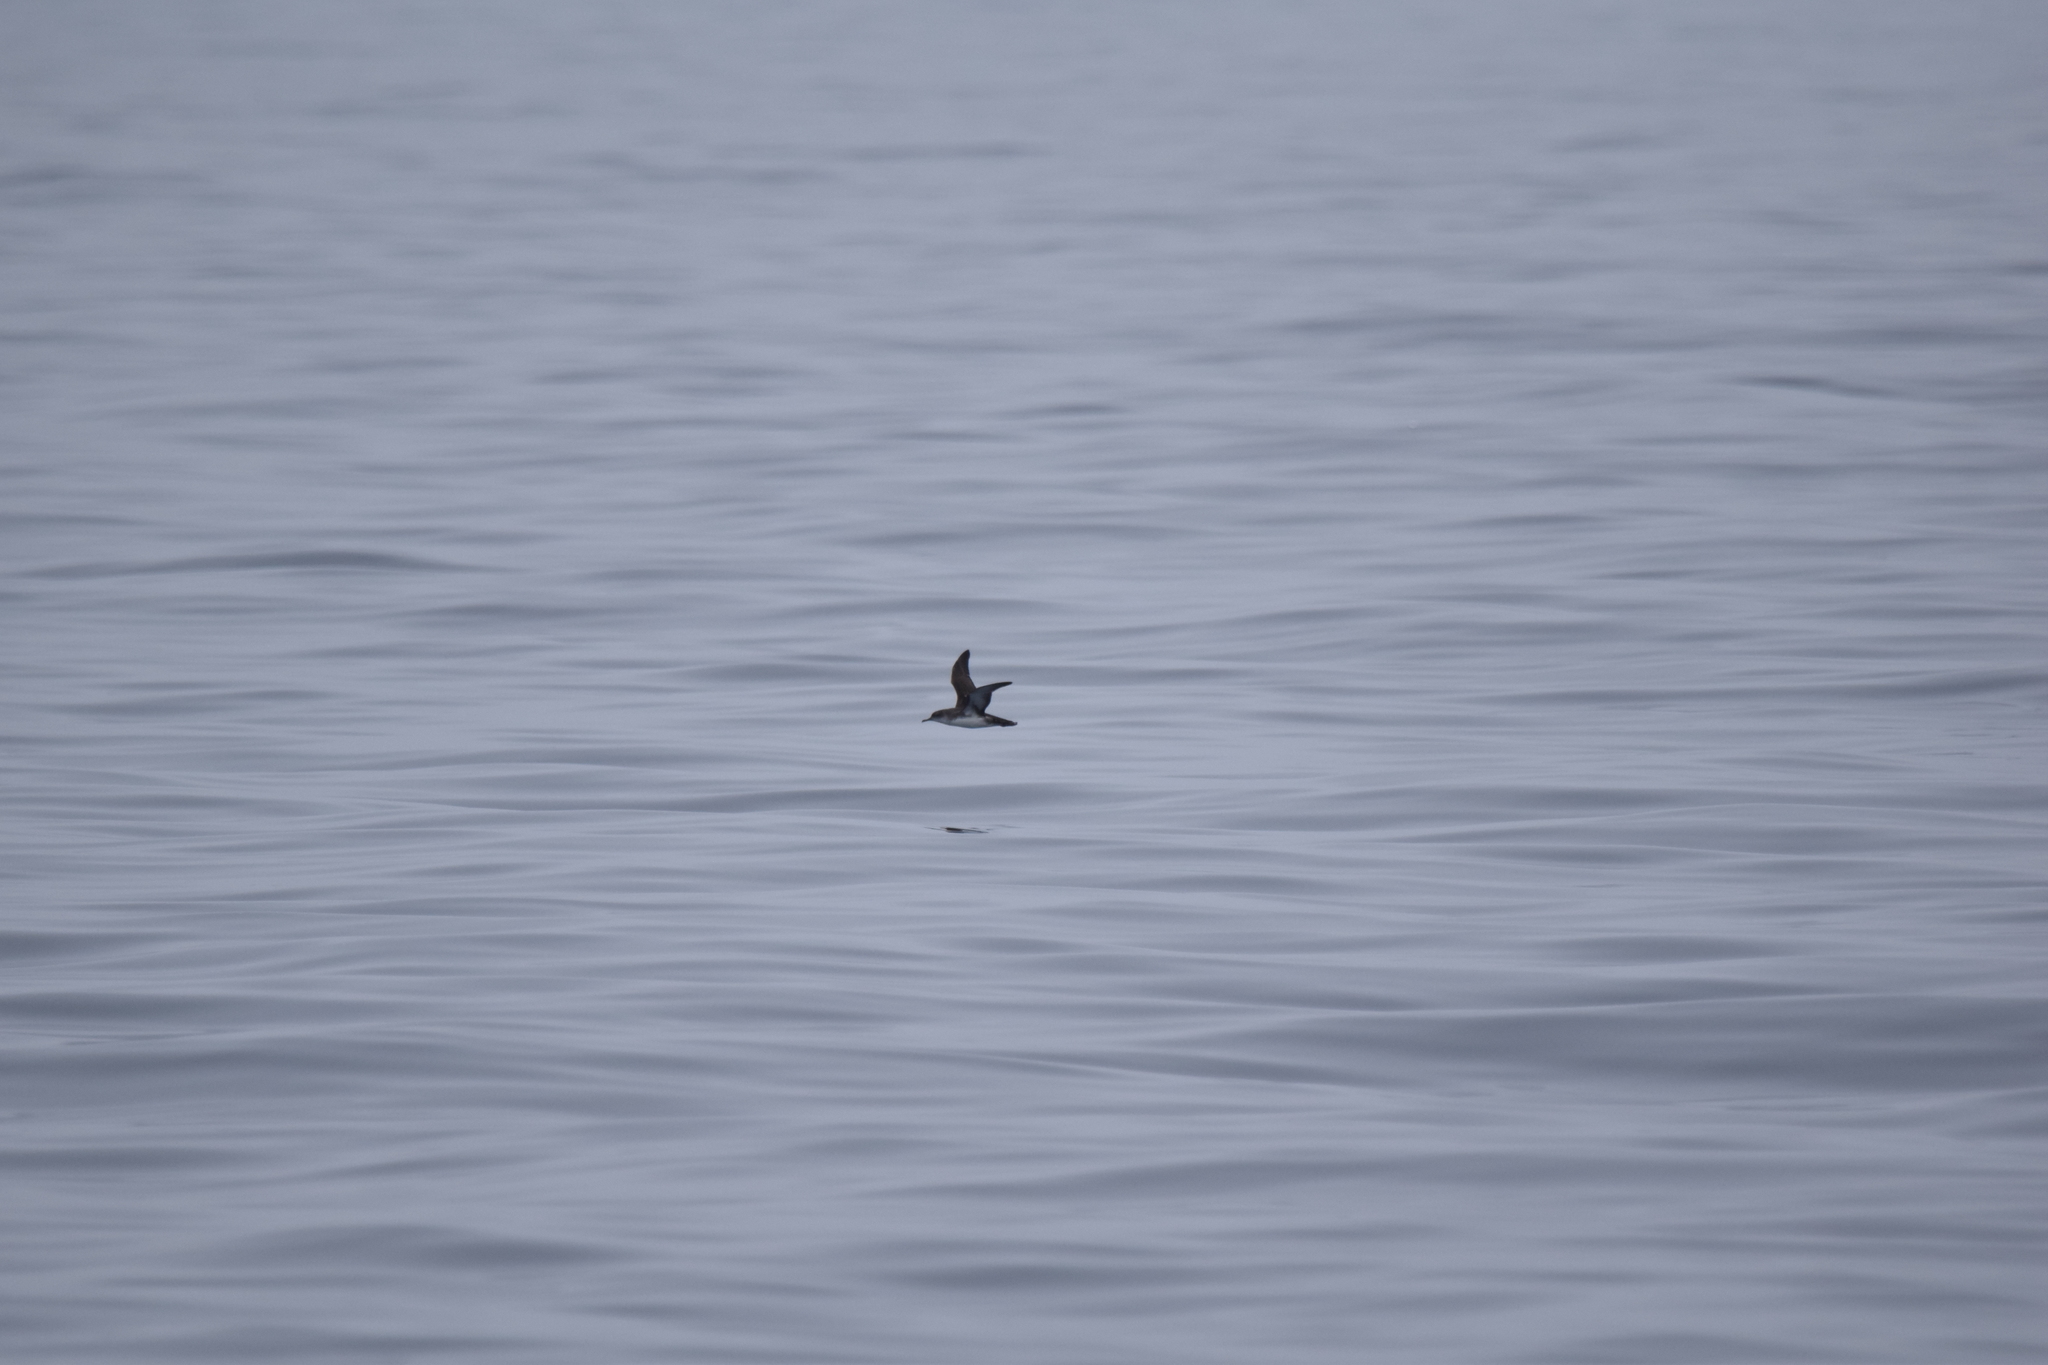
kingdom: Animalia
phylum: Chordata
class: Aves
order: Procellariiformes
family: Procellariidae
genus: Puffinus
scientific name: Puffinus yelkouan
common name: Yelkouan shearwater
